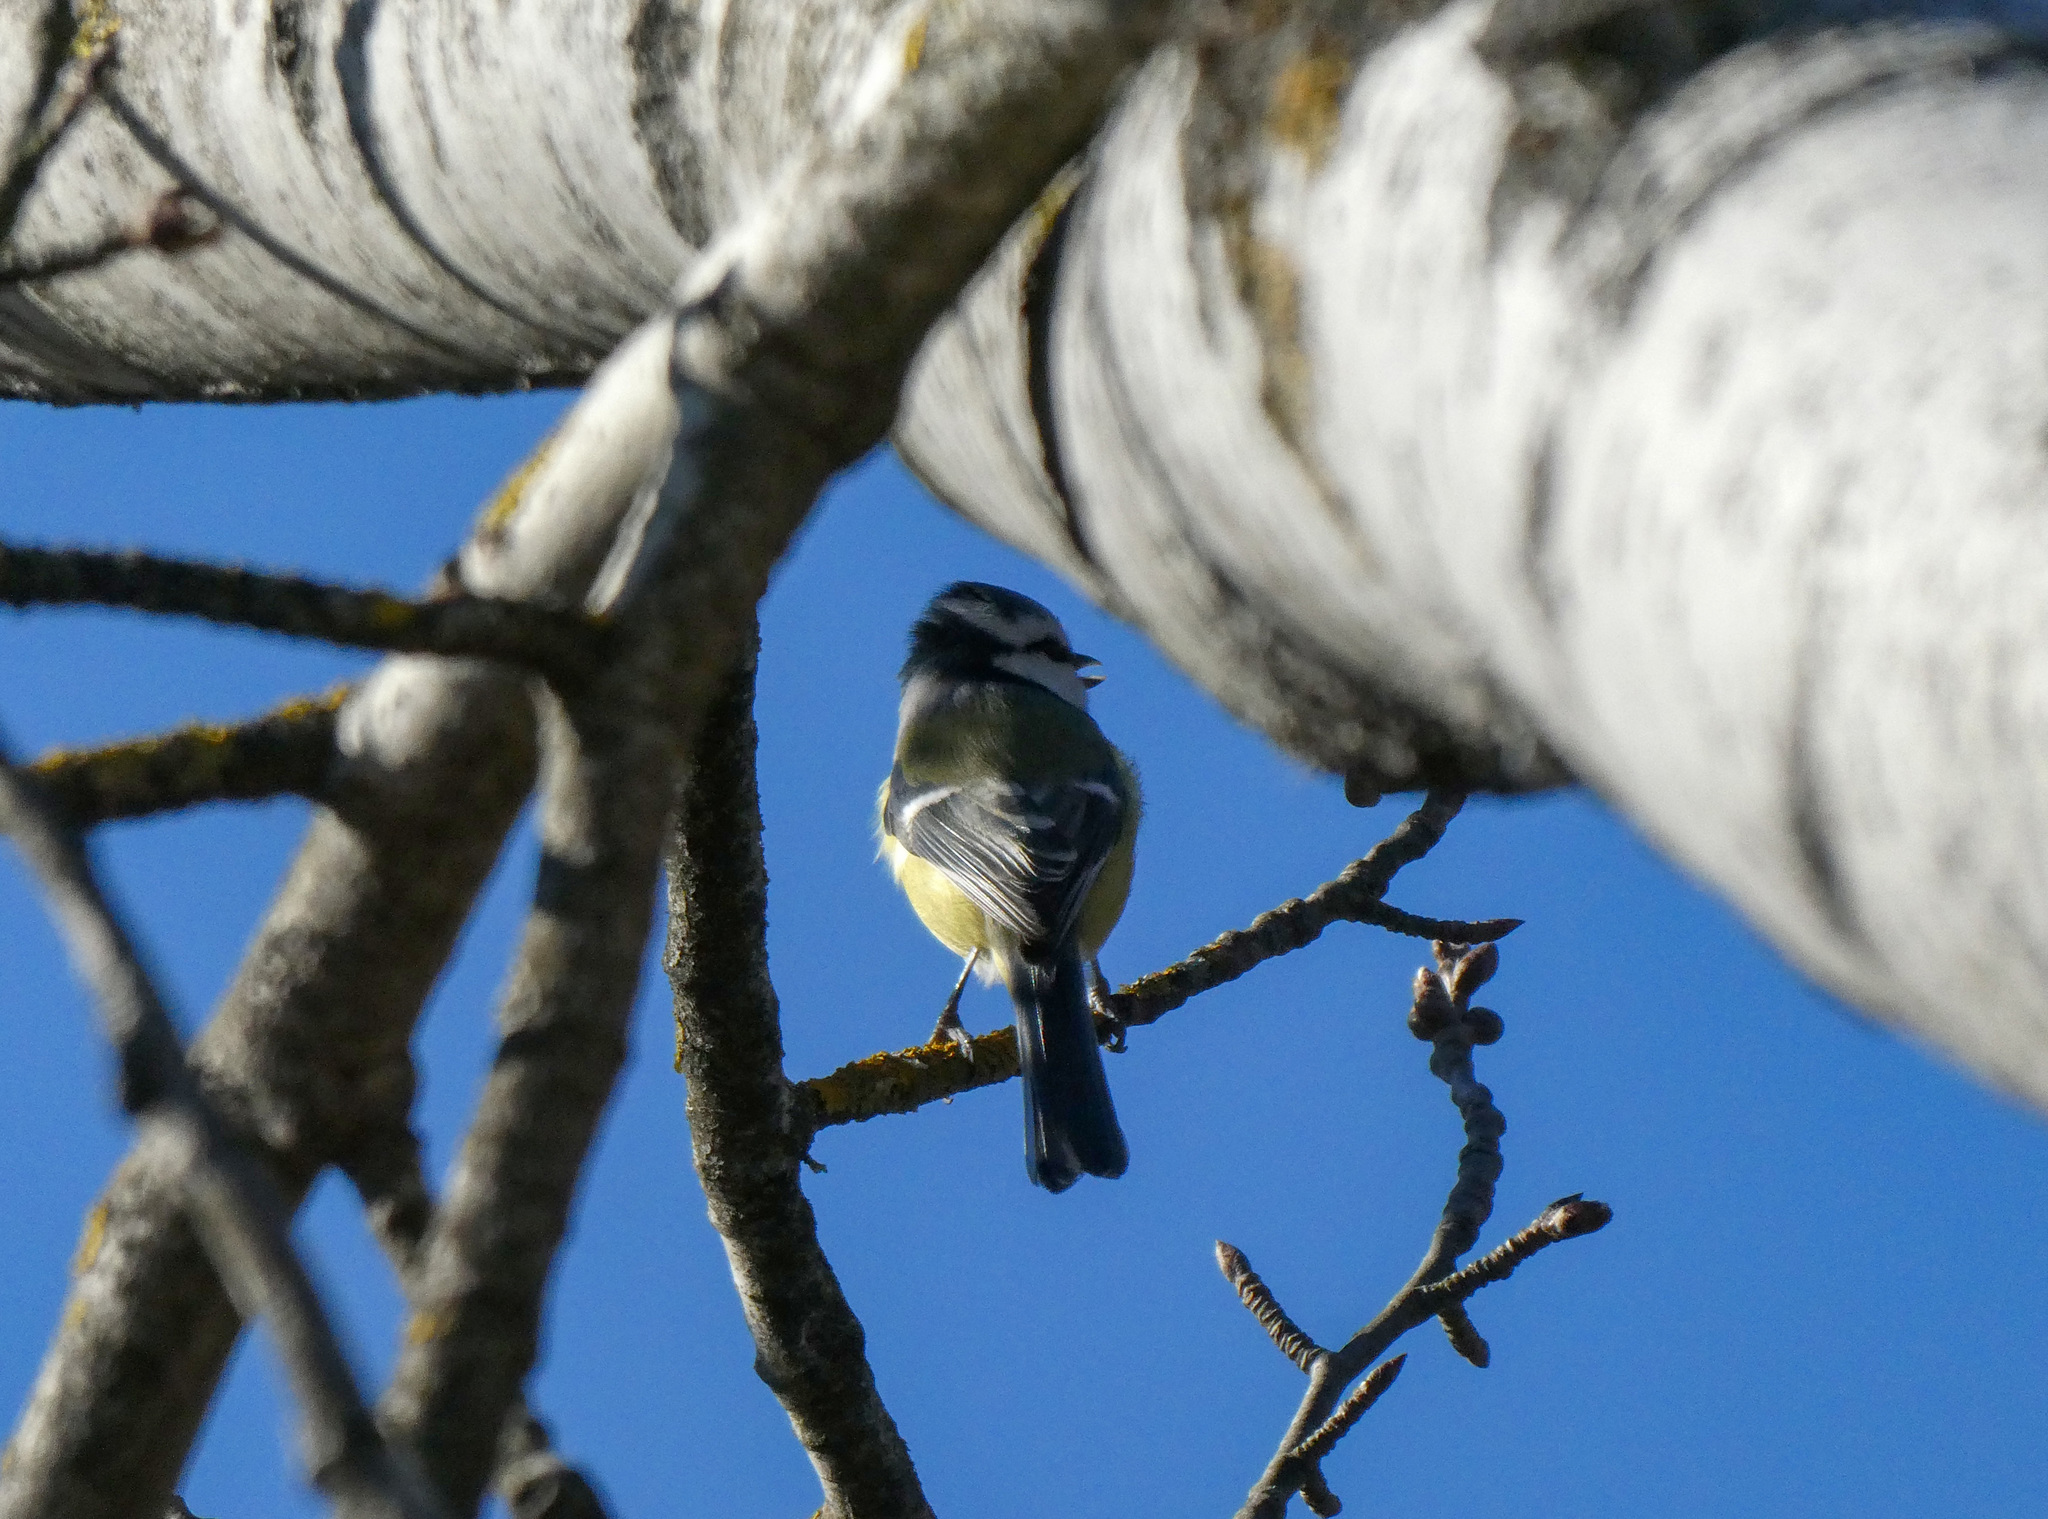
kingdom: Animalia
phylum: Chordata
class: Aves
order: Passeriformes
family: Paridae
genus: Cyanistes
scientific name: Cyanistes caeruleus
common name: Eurasian blue tit
